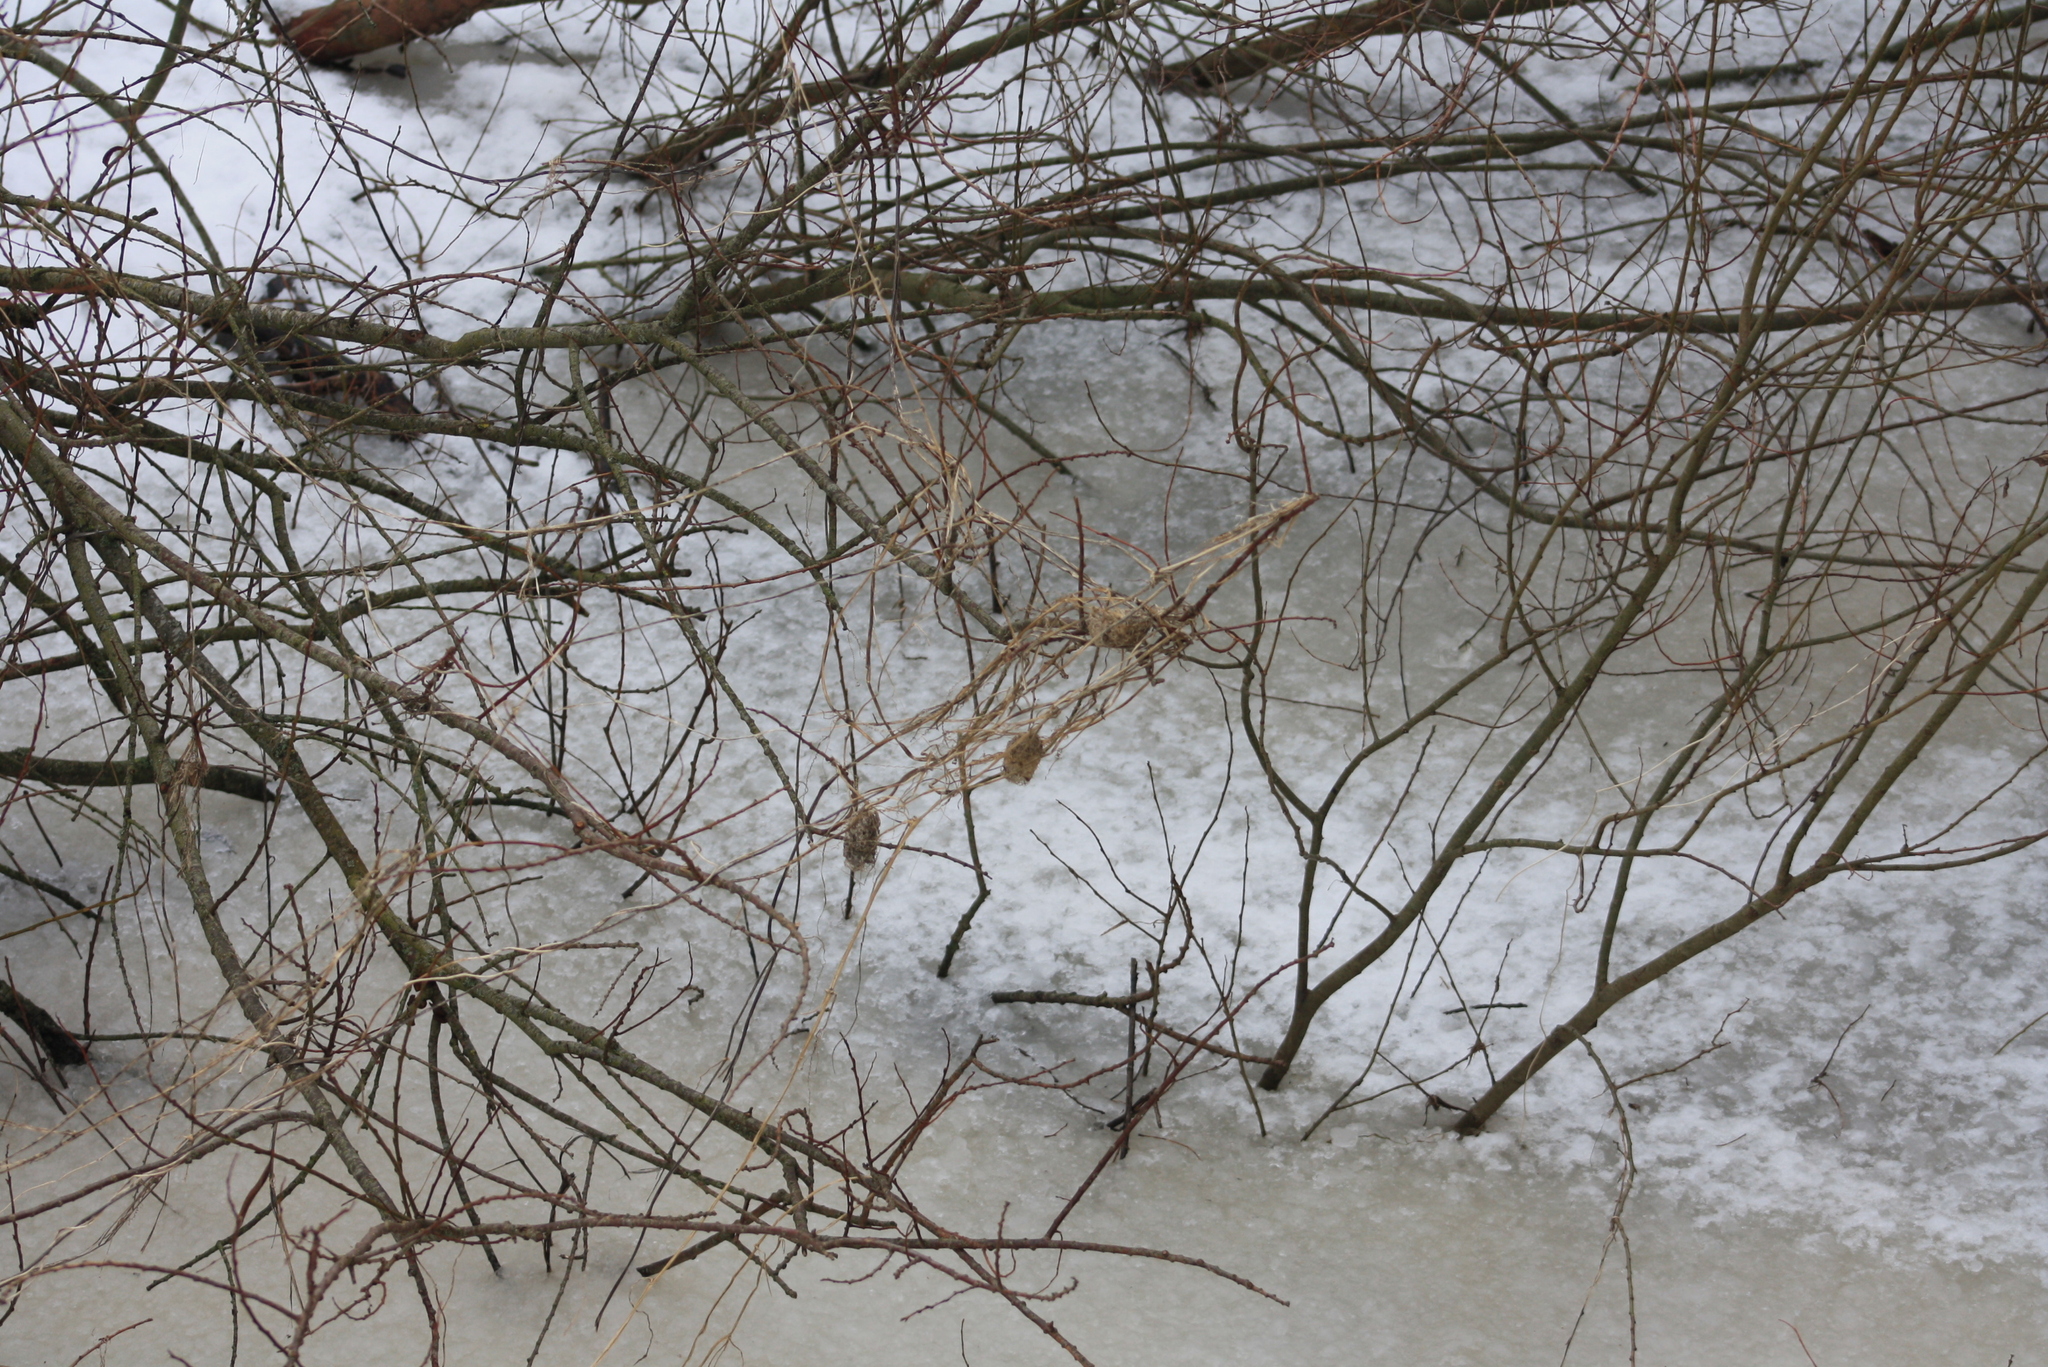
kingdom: Plantae
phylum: Tracheophyta
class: Magnoliopsida
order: Cucurbitales
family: Cucurbitaceae
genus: Echinocystis
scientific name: Echinocystis lobata
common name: Wild cucumber
